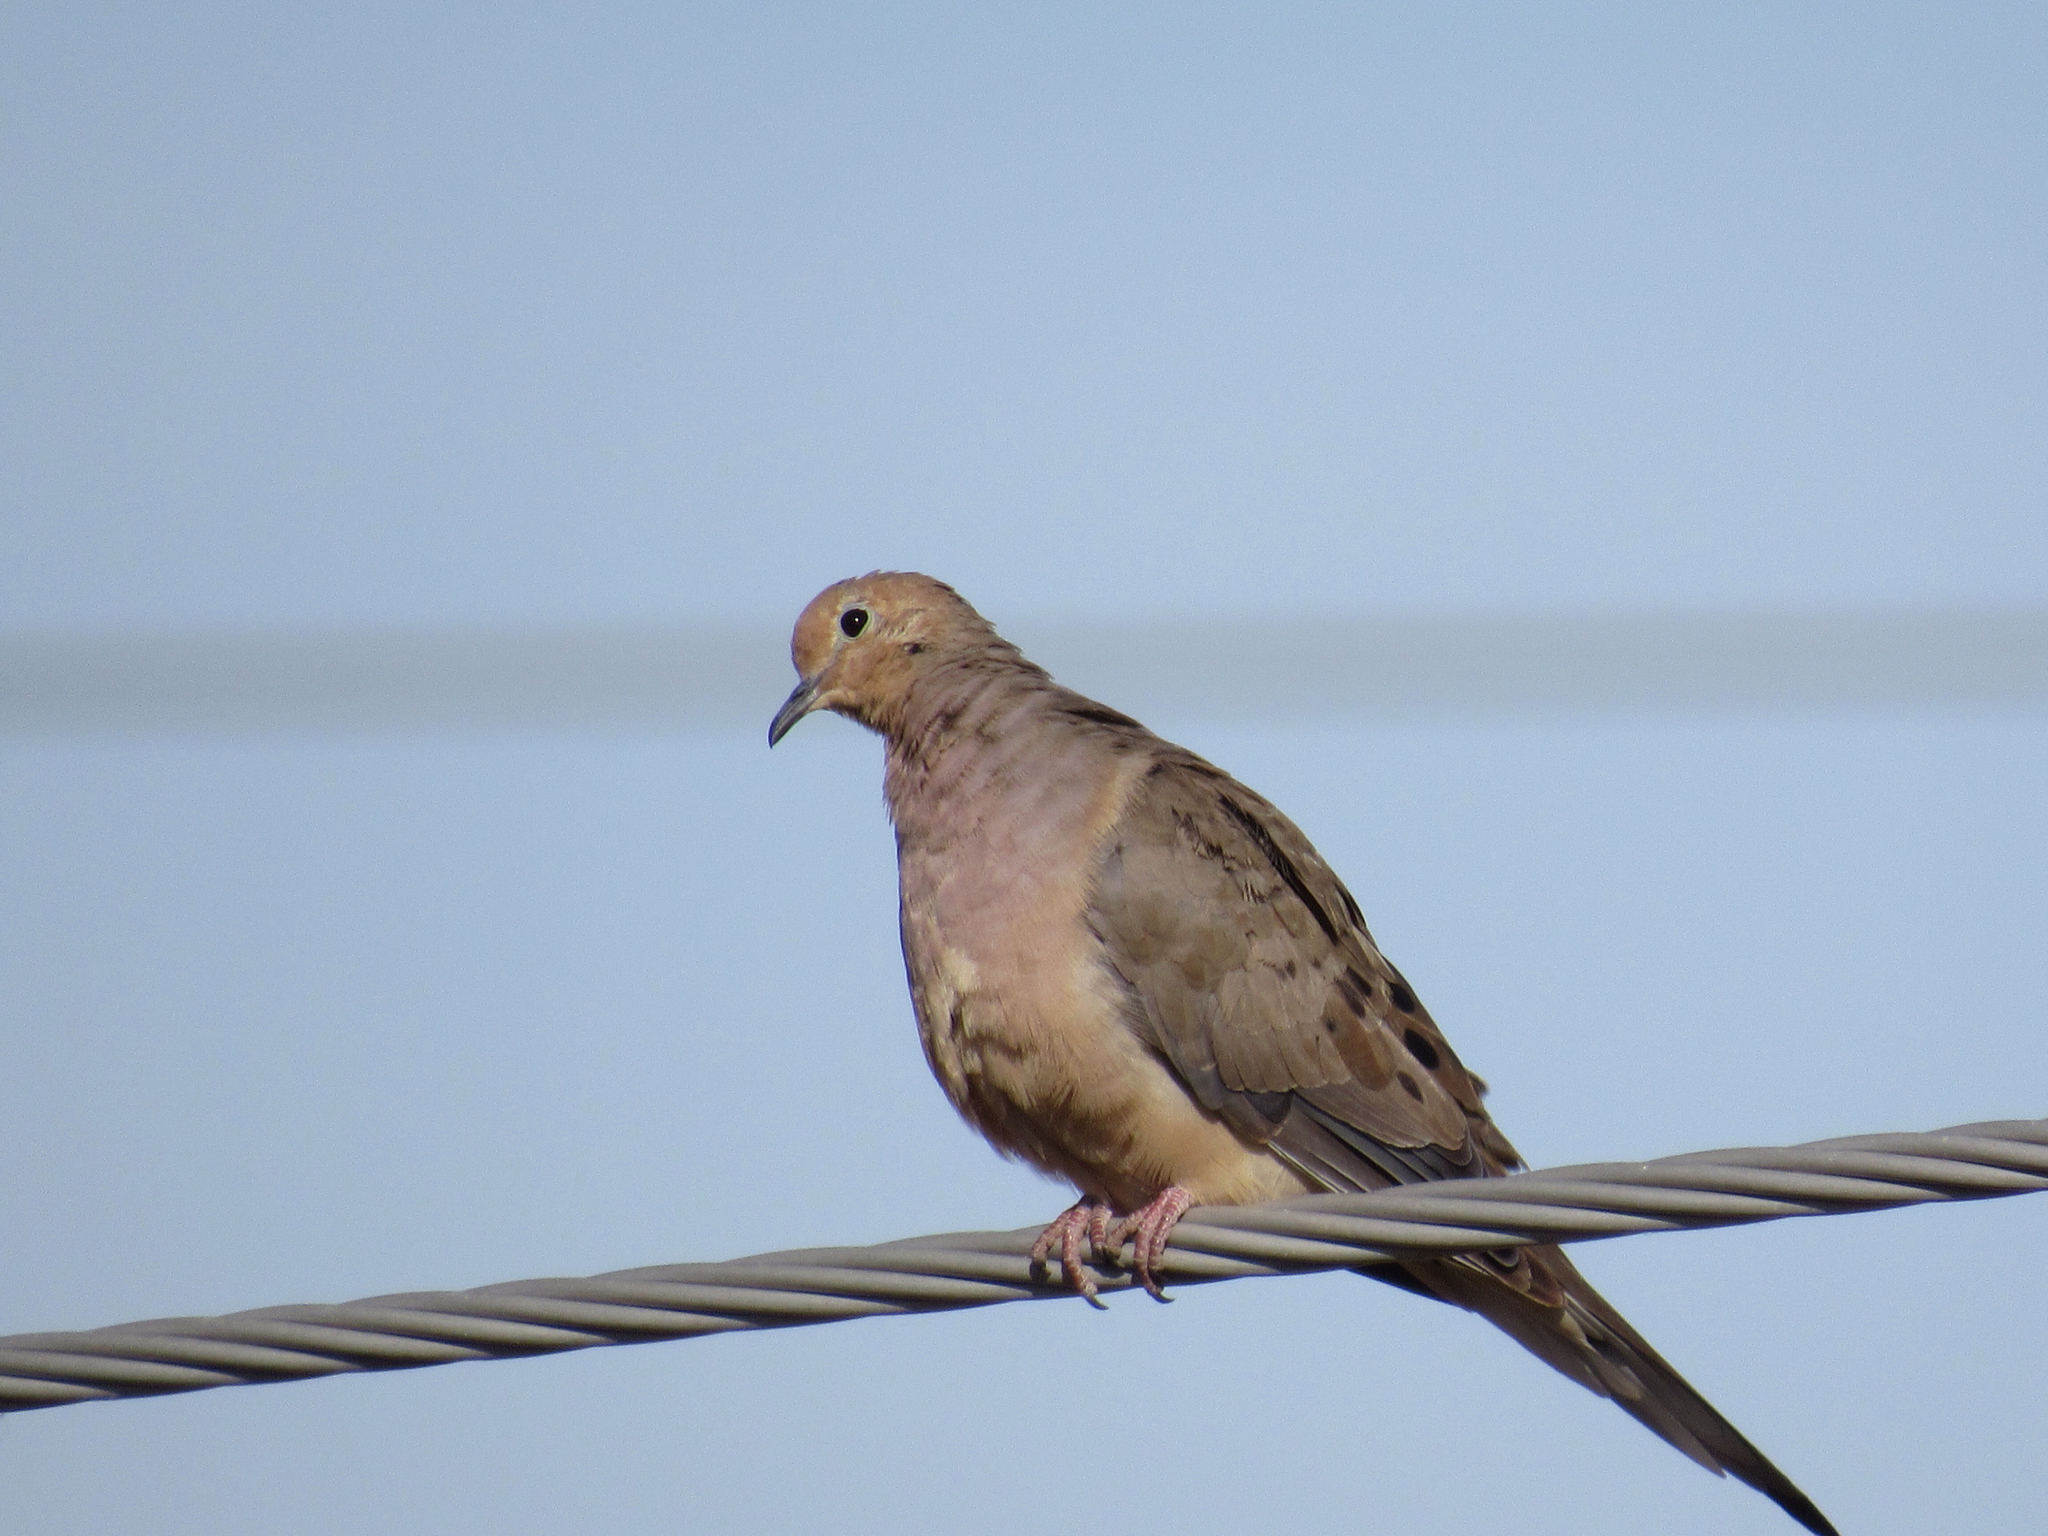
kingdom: Animalia
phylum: Chordata
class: Aves
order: Columbiformes
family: Columbidae
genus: Zenaida
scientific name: Zenaida macroura
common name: Mourning dove
